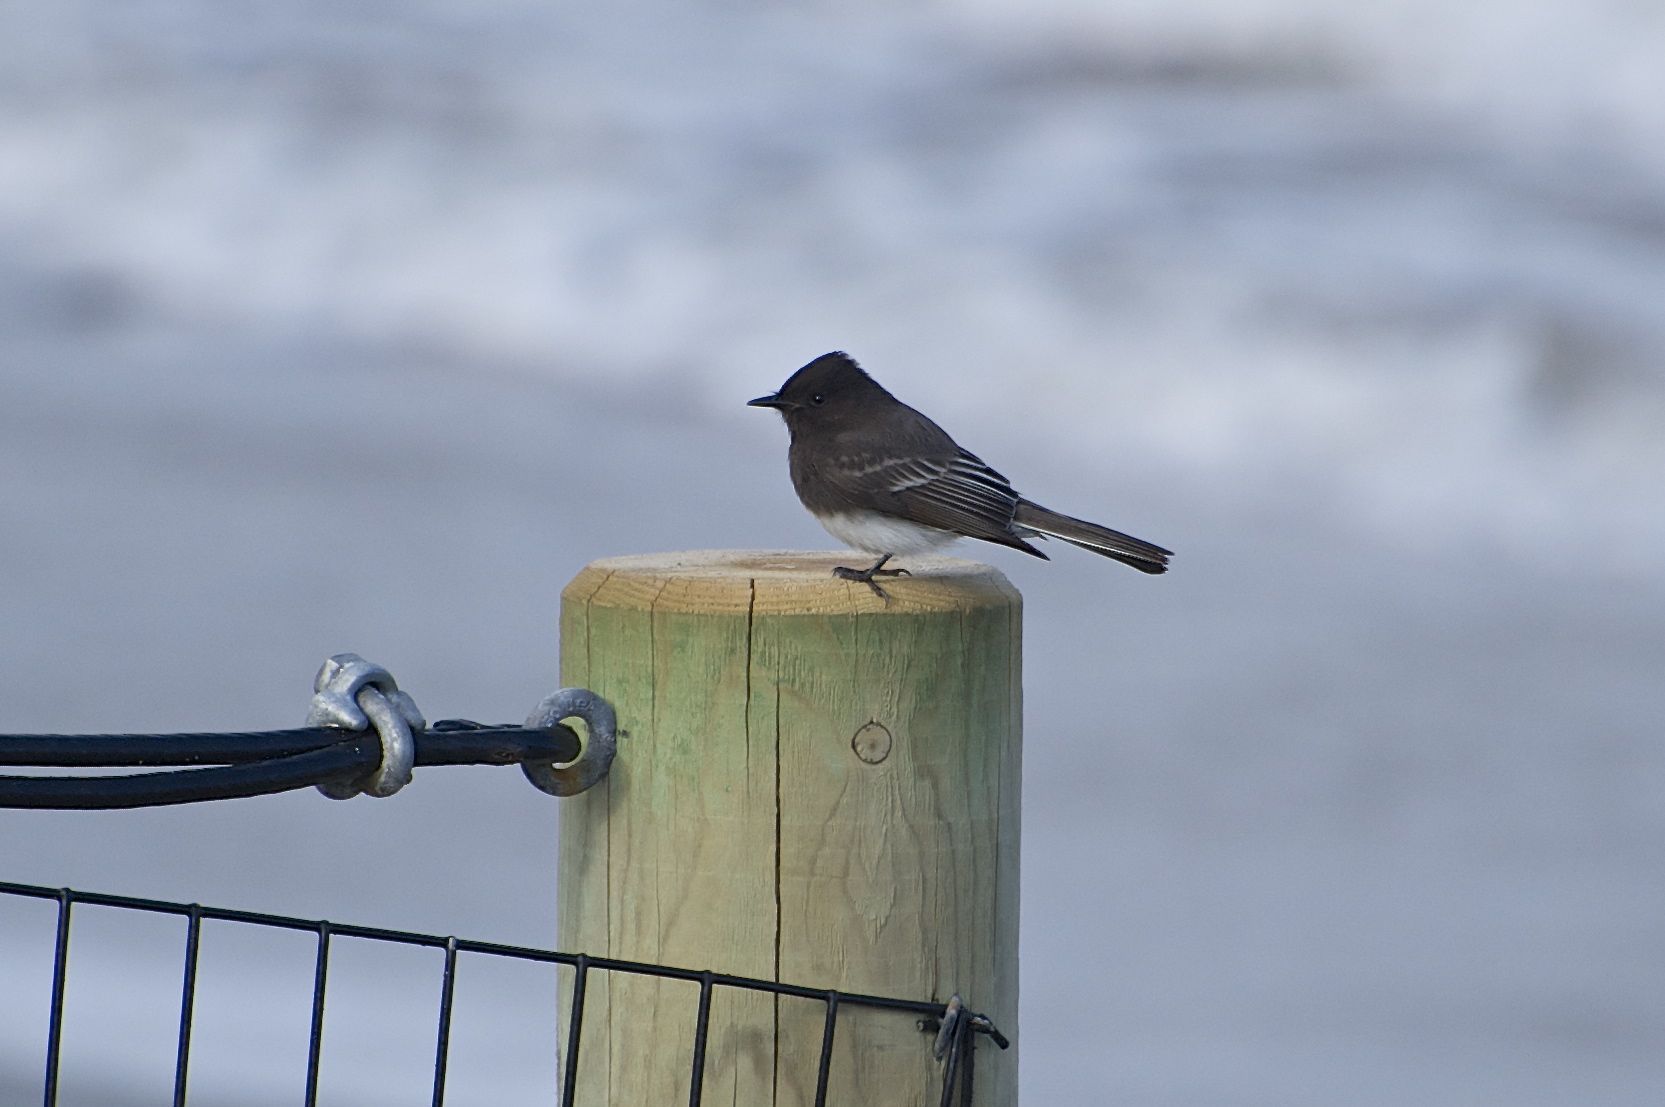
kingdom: Animalia
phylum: Chordata
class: Aves
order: Passeriformes
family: Tyrannidae
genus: Sayornis
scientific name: Sayornis nigricans
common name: Black phoebe
